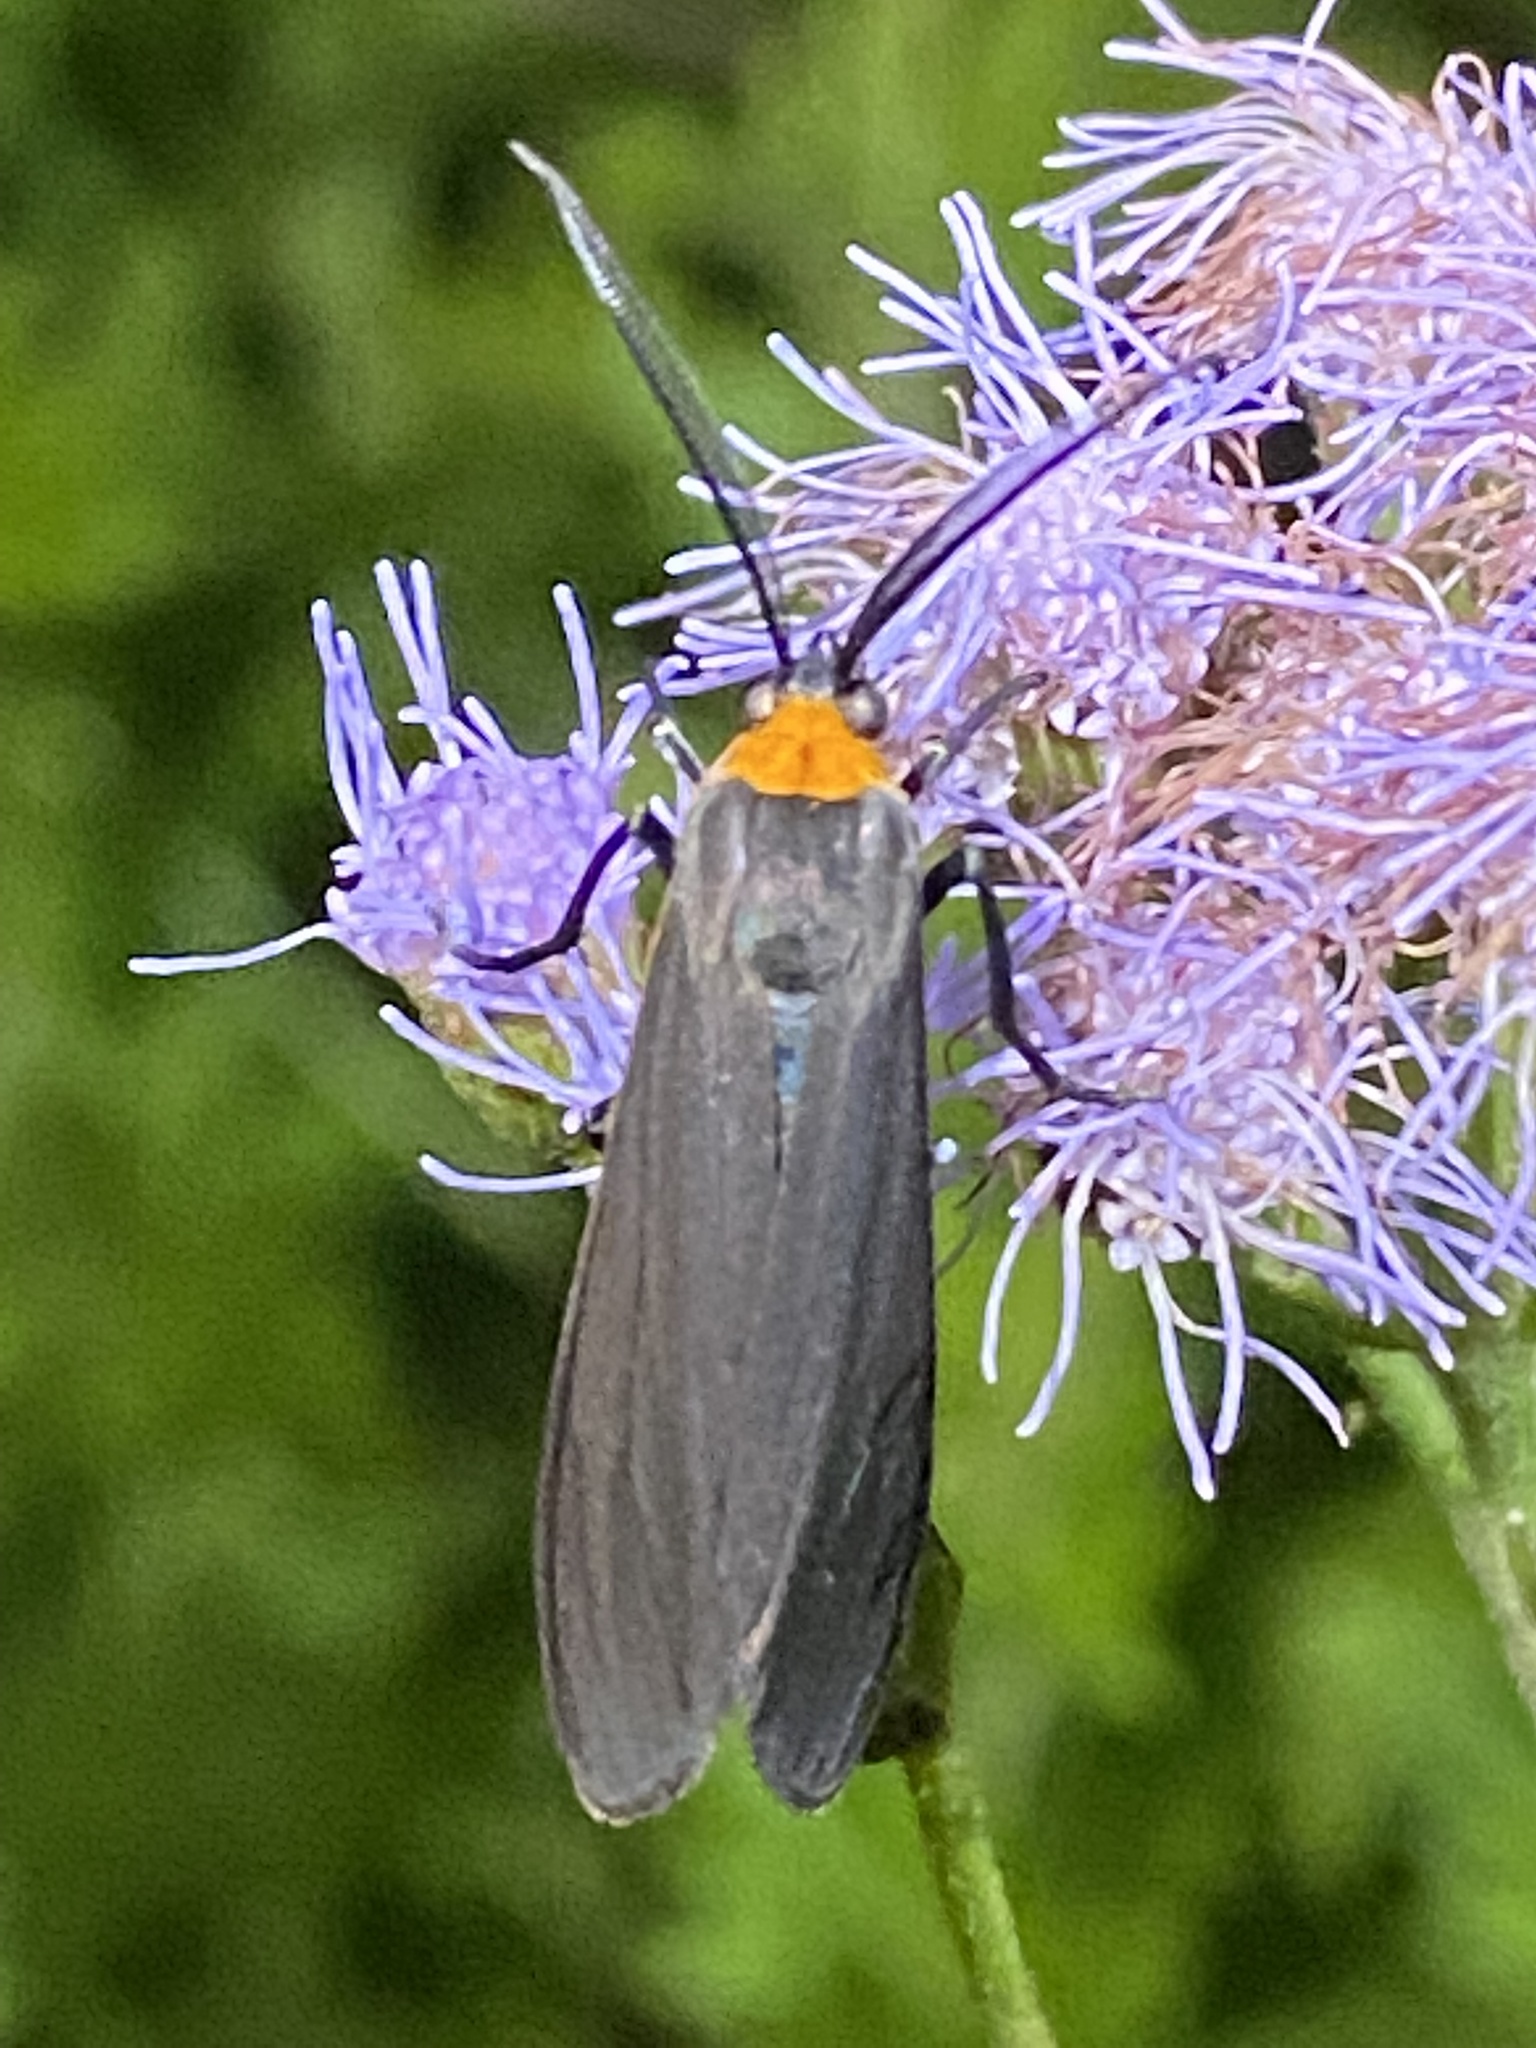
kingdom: Animalia
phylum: Arthropoda
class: Insecta
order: Lepidoptera
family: Erebidae
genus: Cisseps
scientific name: Cisseps fulvicollis
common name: Yellow-collared scape moth
